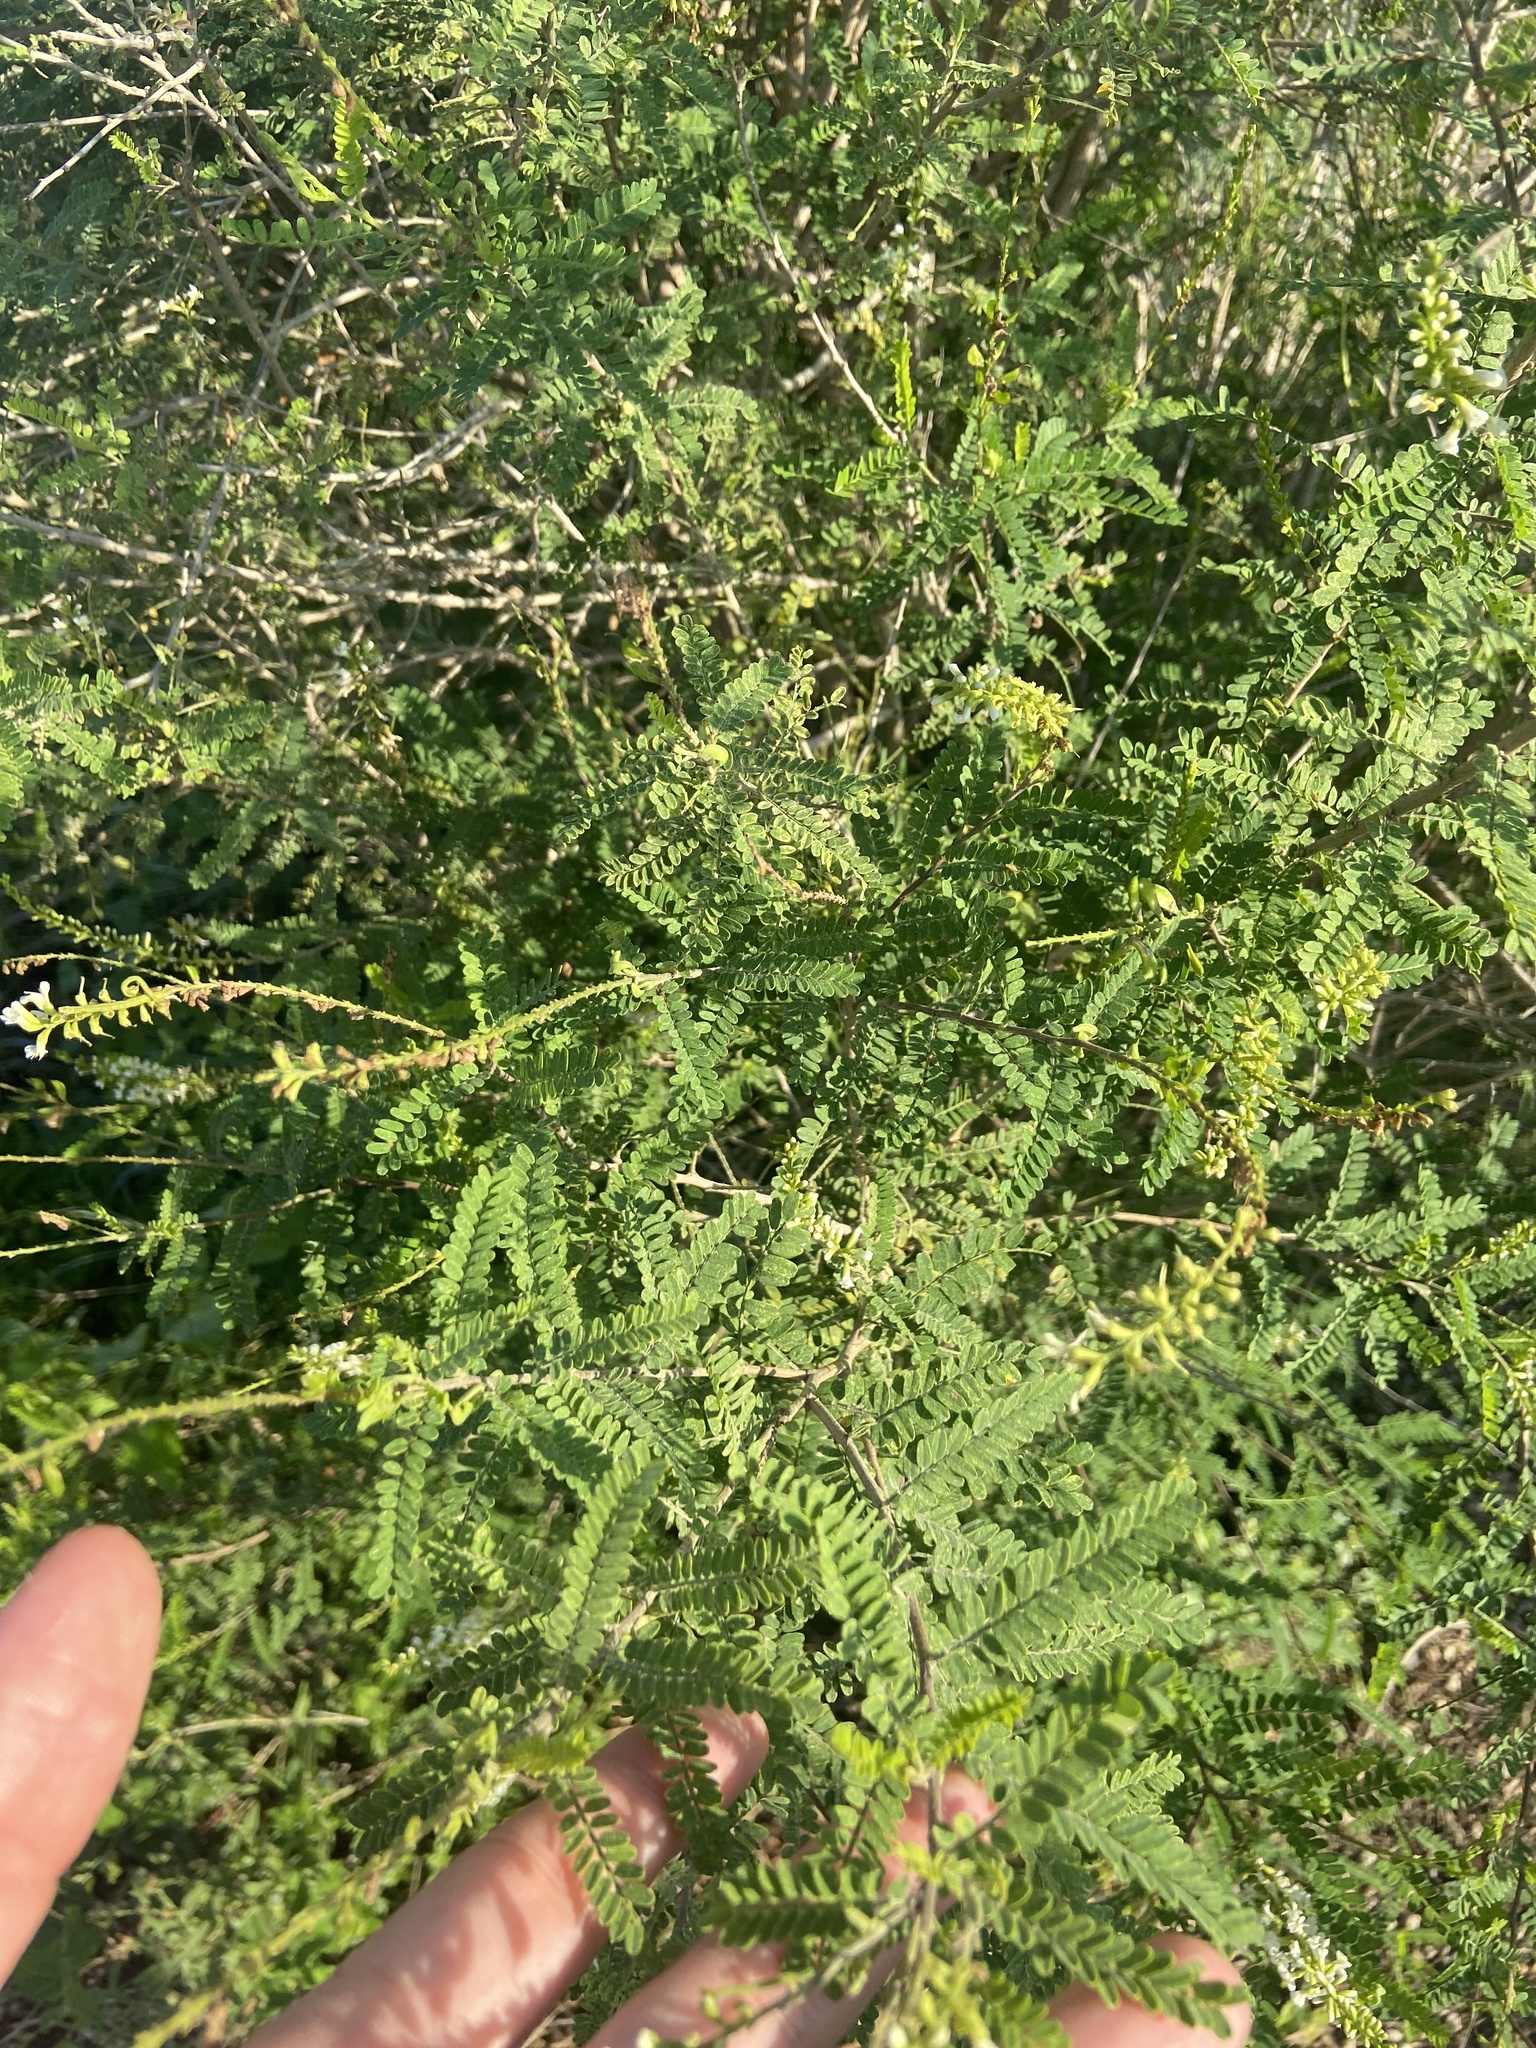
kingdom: Plantae
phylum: Tracheophyta
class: Magnoliopsida
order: Fabales
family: Fabaceae
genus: Eysenhardtia
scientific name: Eysenhardtia texana
